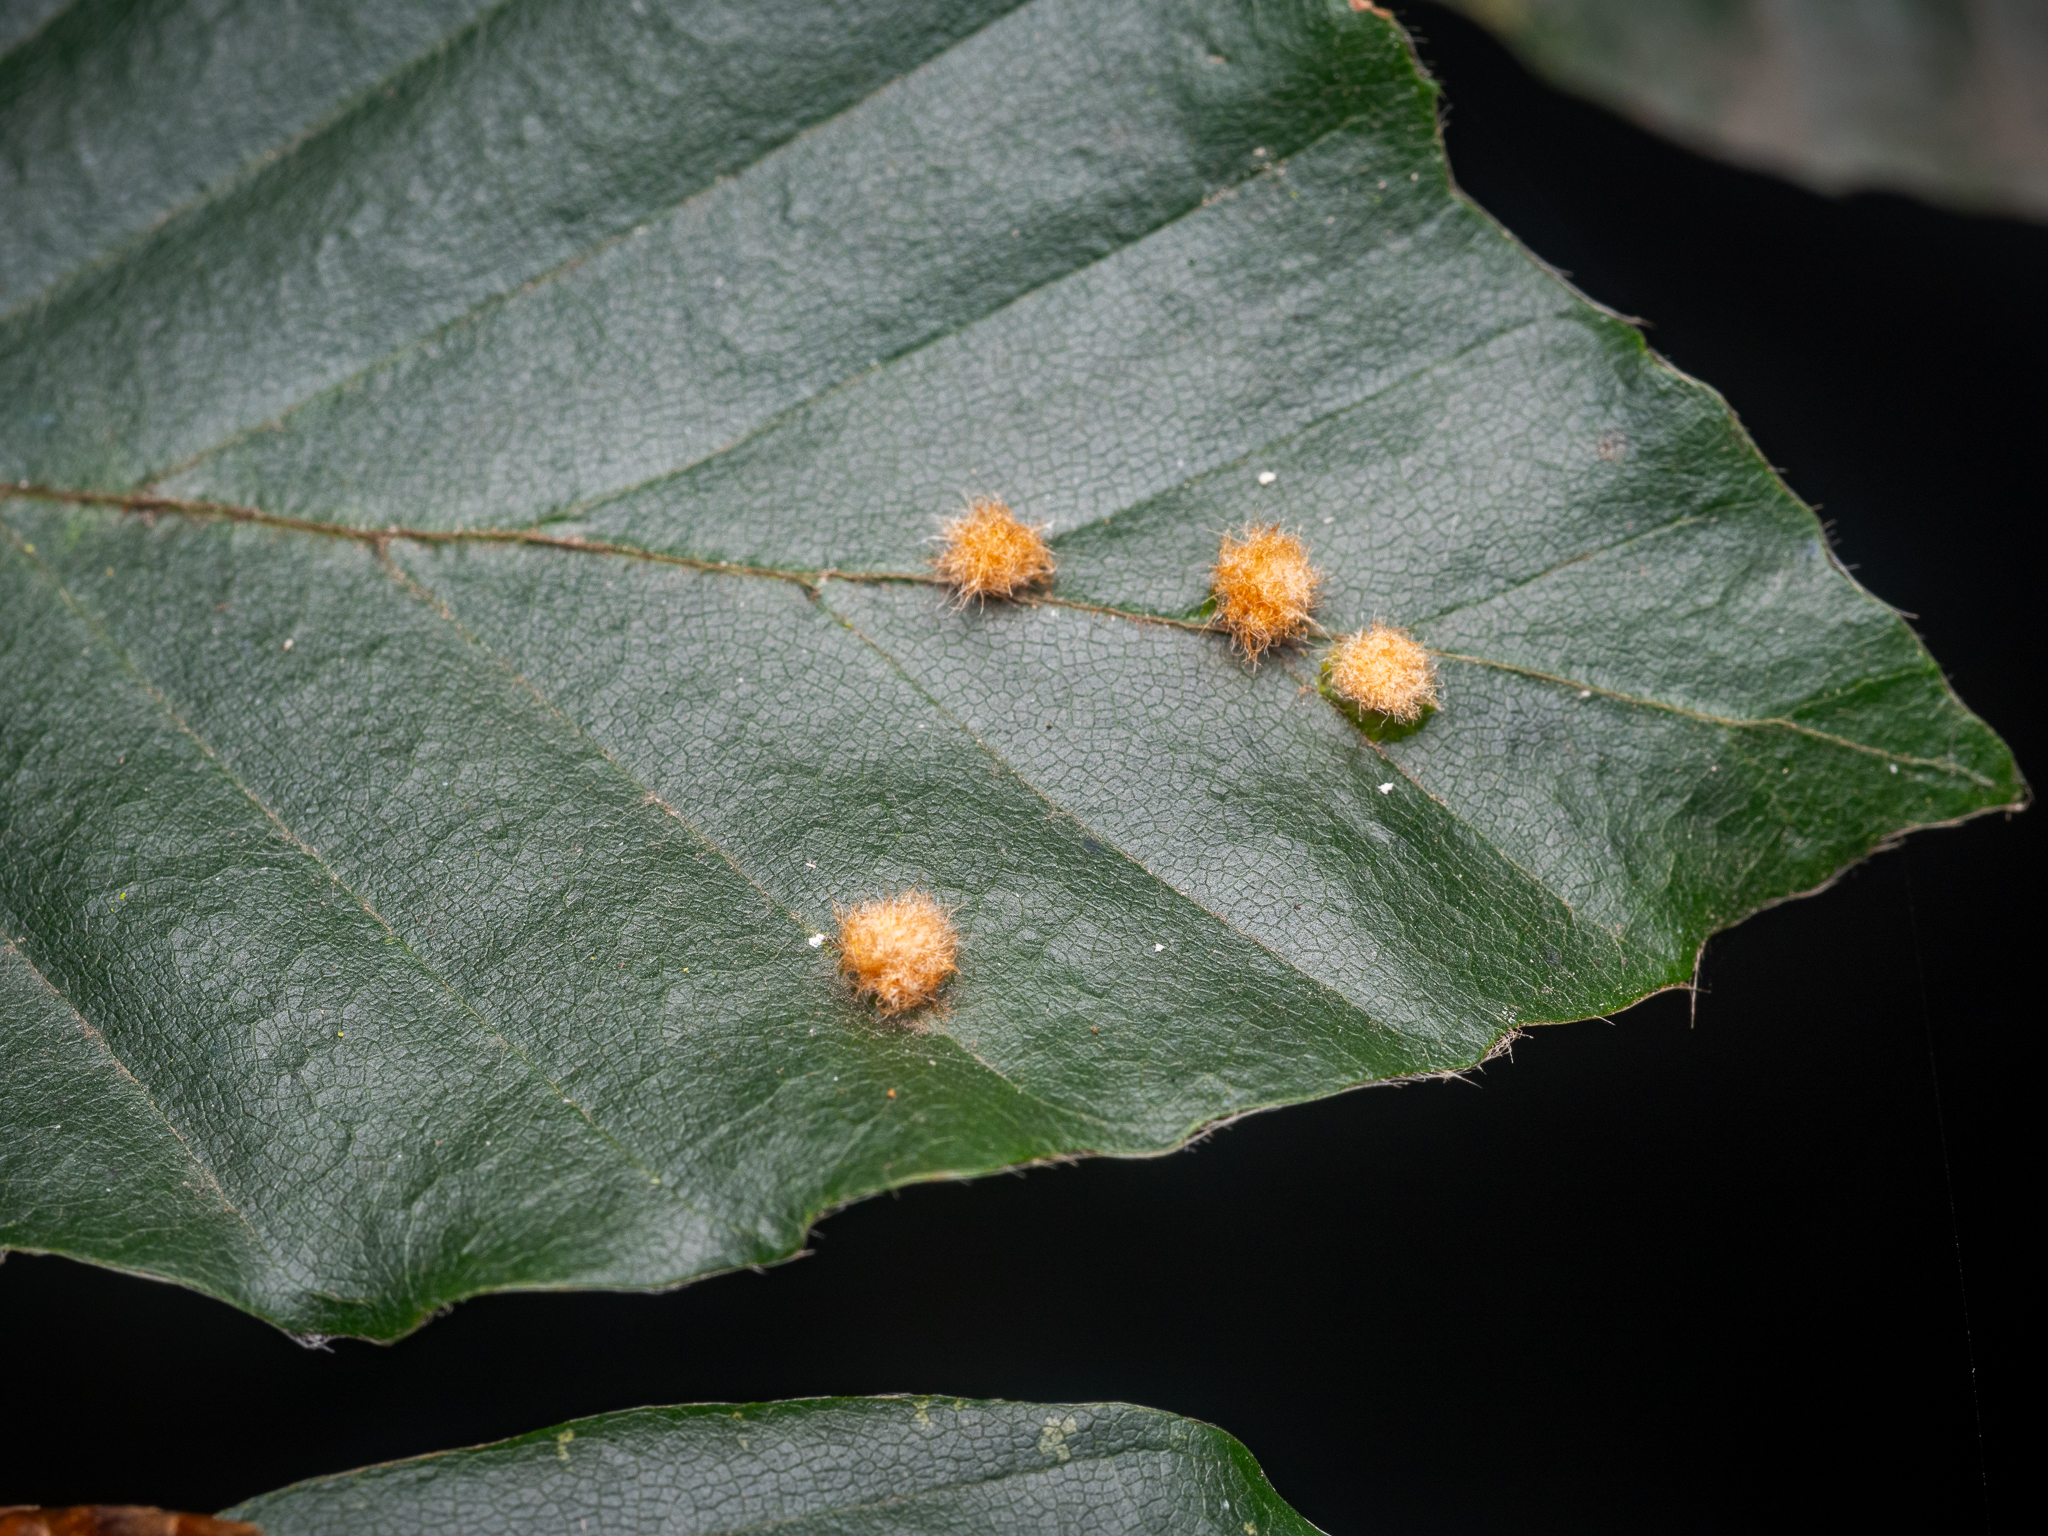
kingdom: Animalia
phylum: Arthropoda
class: Insecta
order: Diptera
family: Cecidomyiidae
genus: Hartigiola
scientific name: Hartigiola annulipes
